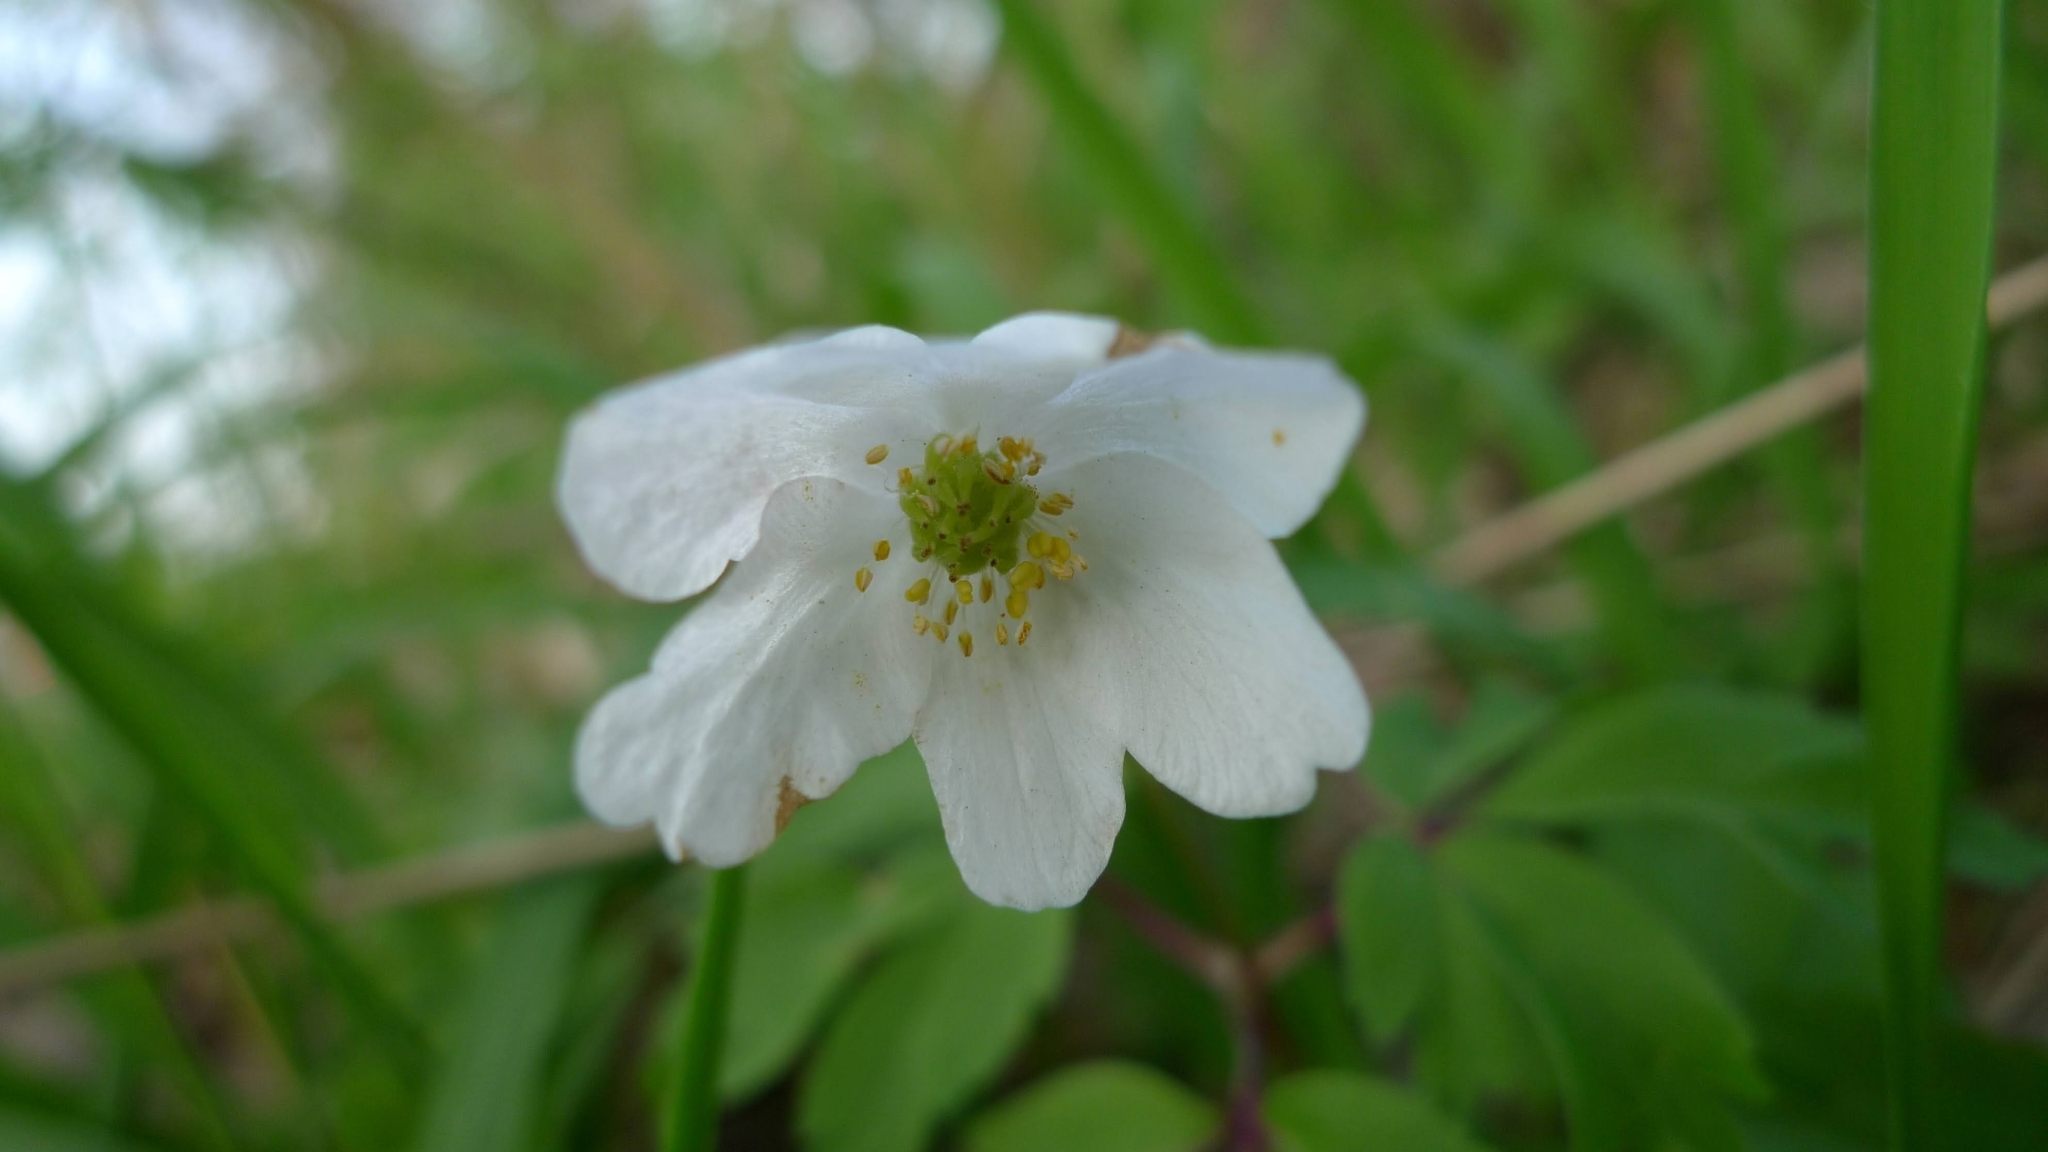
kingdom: Plantae
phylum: Tracheophyta
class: Magnoliopsida
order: Ranunculales
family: Ranunculaceae
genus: Anemone
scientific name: Anemone nemorosa
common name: Wood anemone
